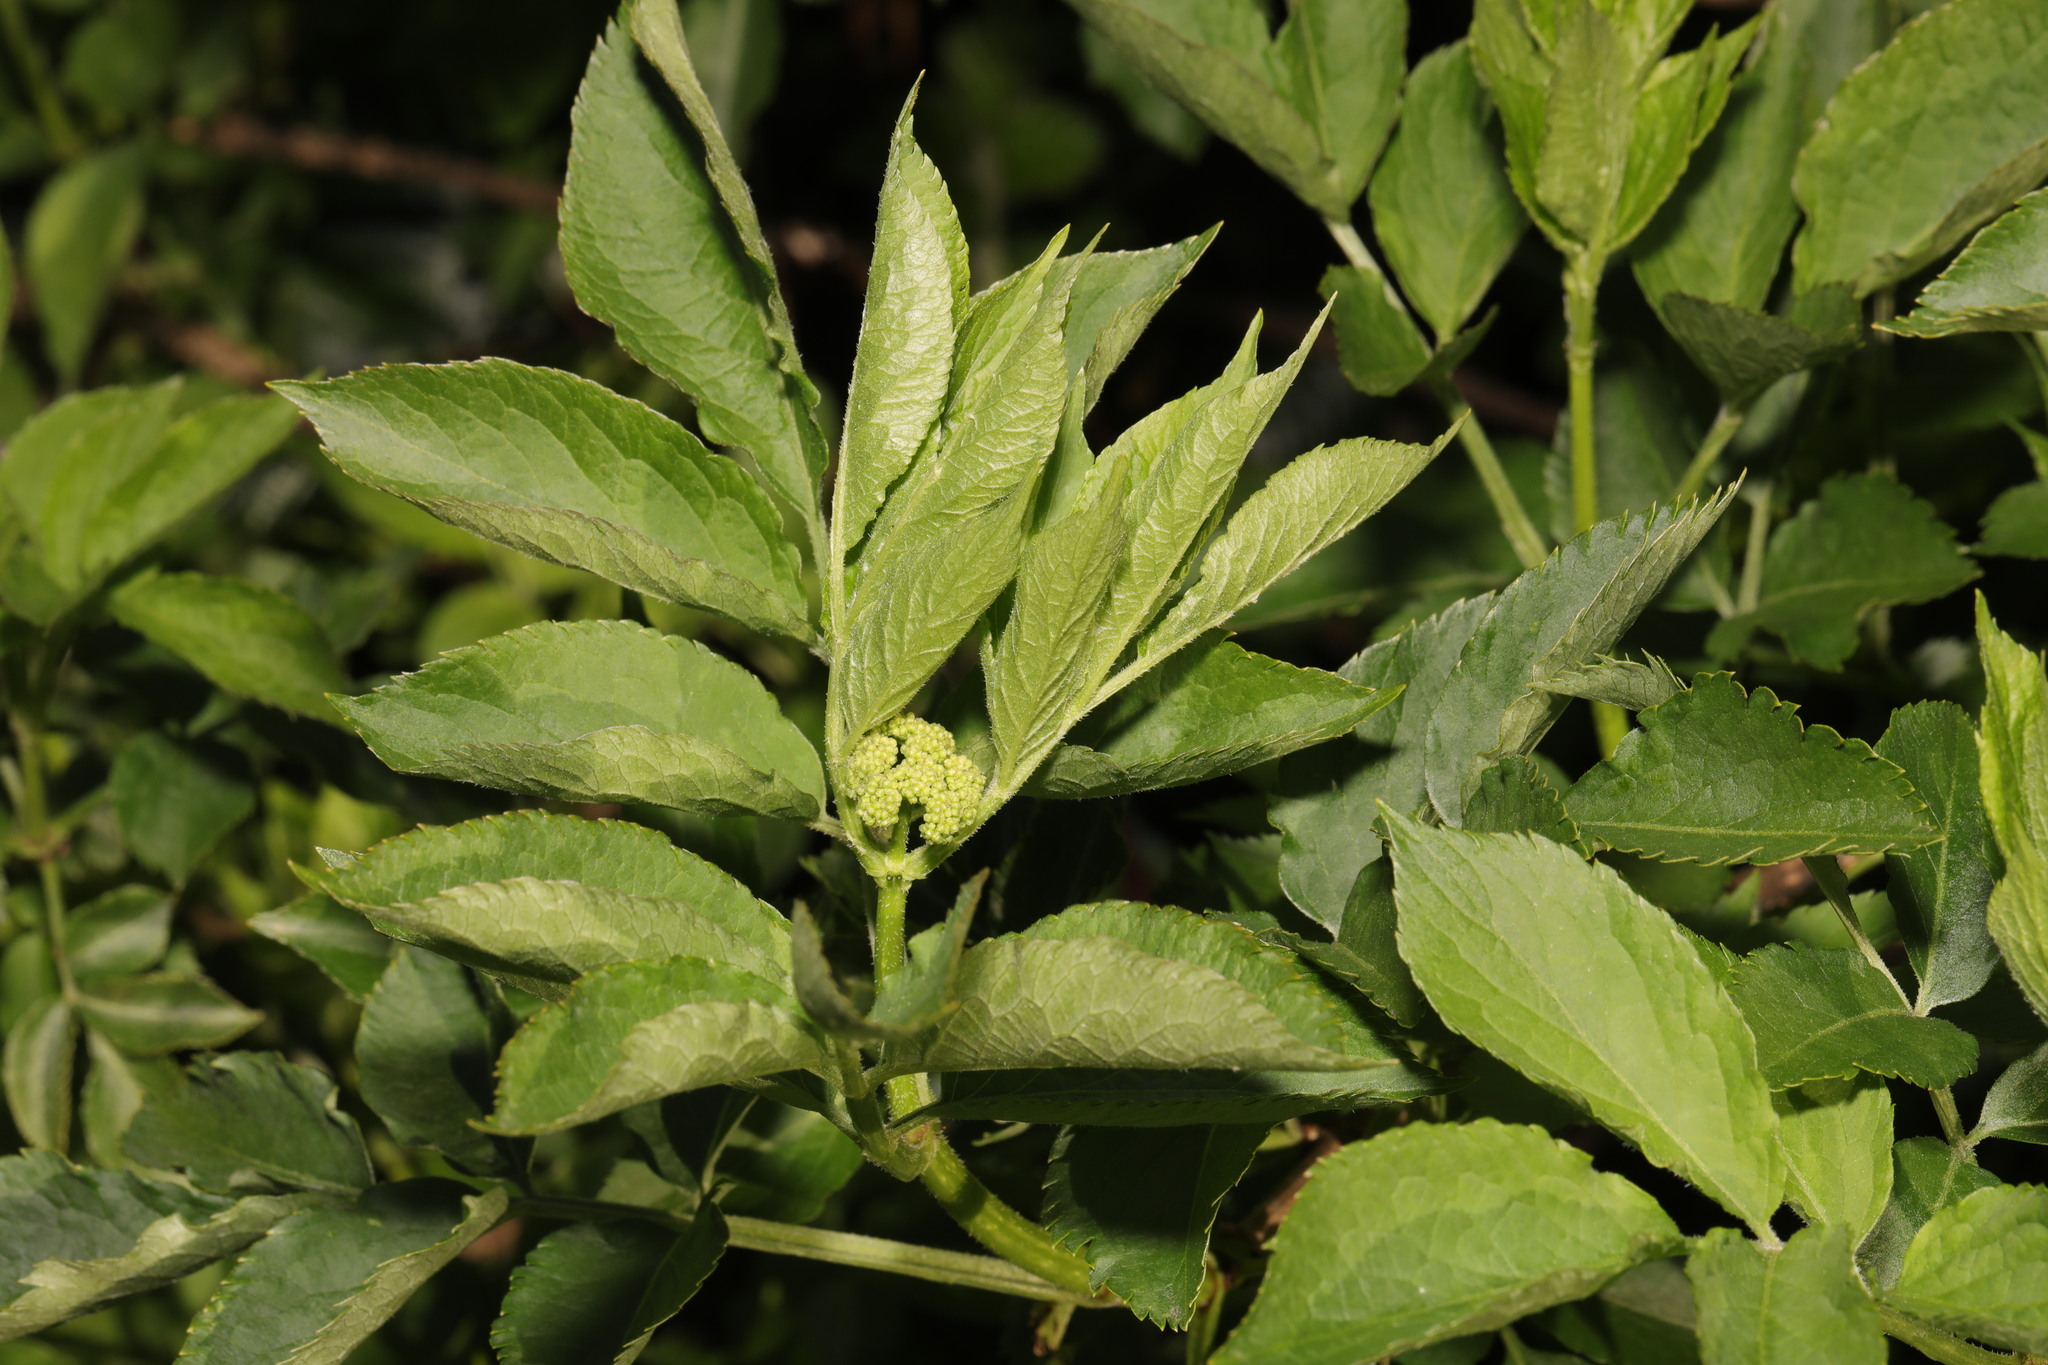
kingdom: Plantae
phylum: Tracheophyta
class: Magnoliopsida
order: Dipsacales
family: Viburnaceae
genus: Sambucus
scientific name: Sambucus nigra
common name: Elder
